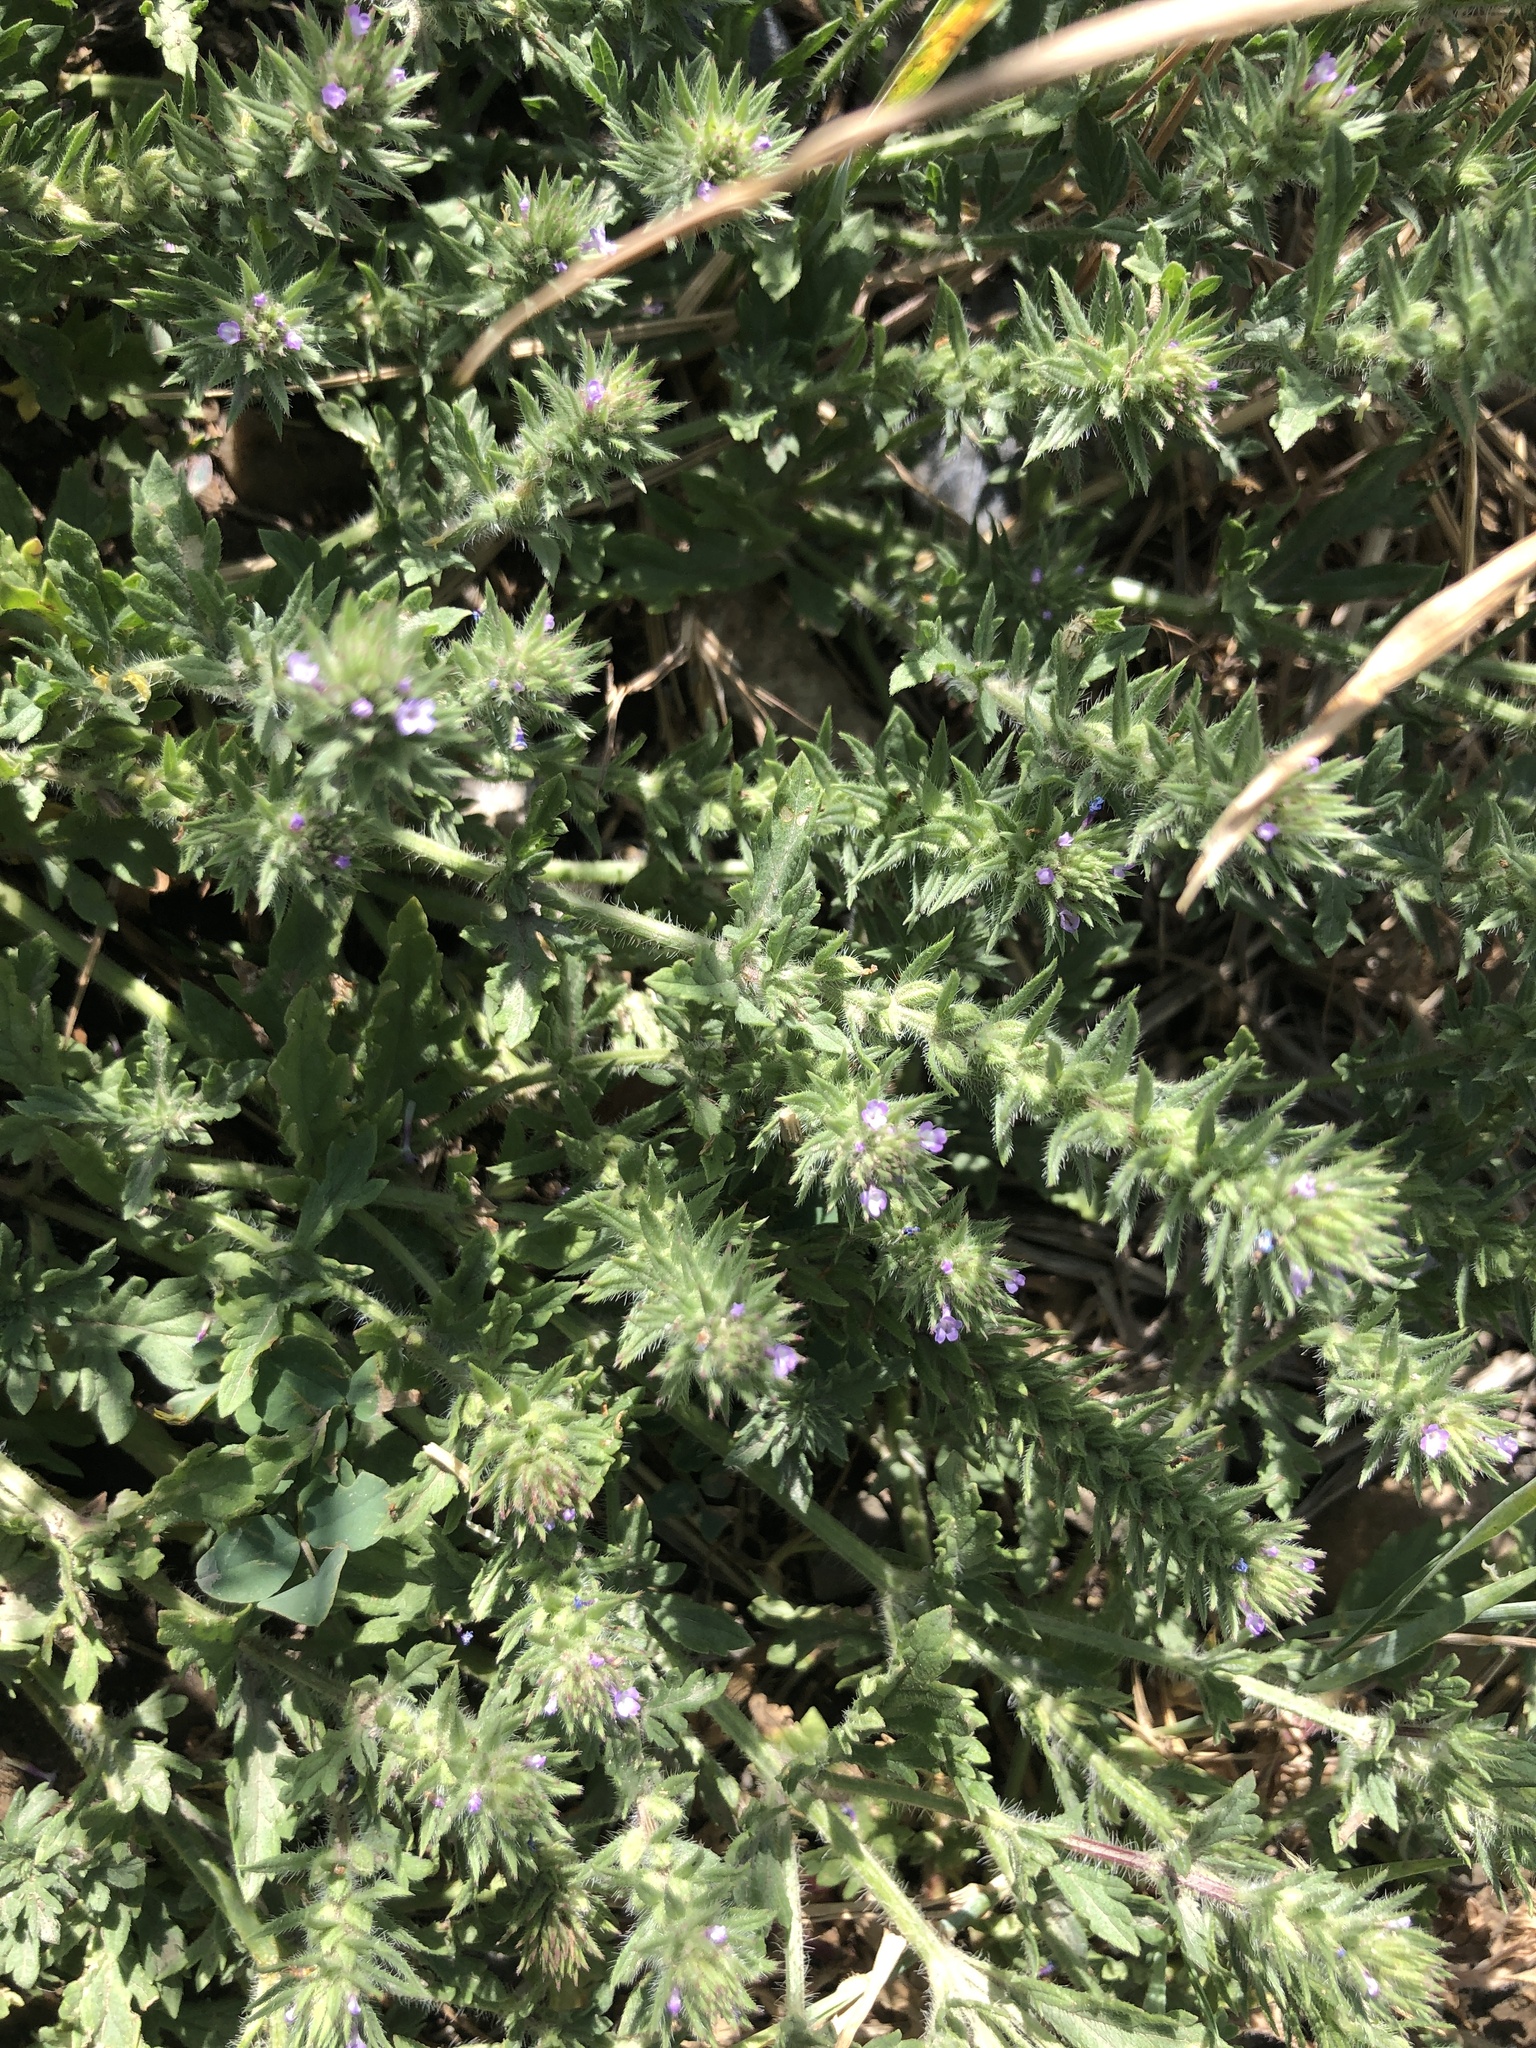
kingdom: Plantae
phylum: Tracheophyta
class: Magnoliopsida
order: Lamiales
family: Verbenaceae
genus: Verbena
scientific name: Verbena bracteata
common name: Bracted vervain
